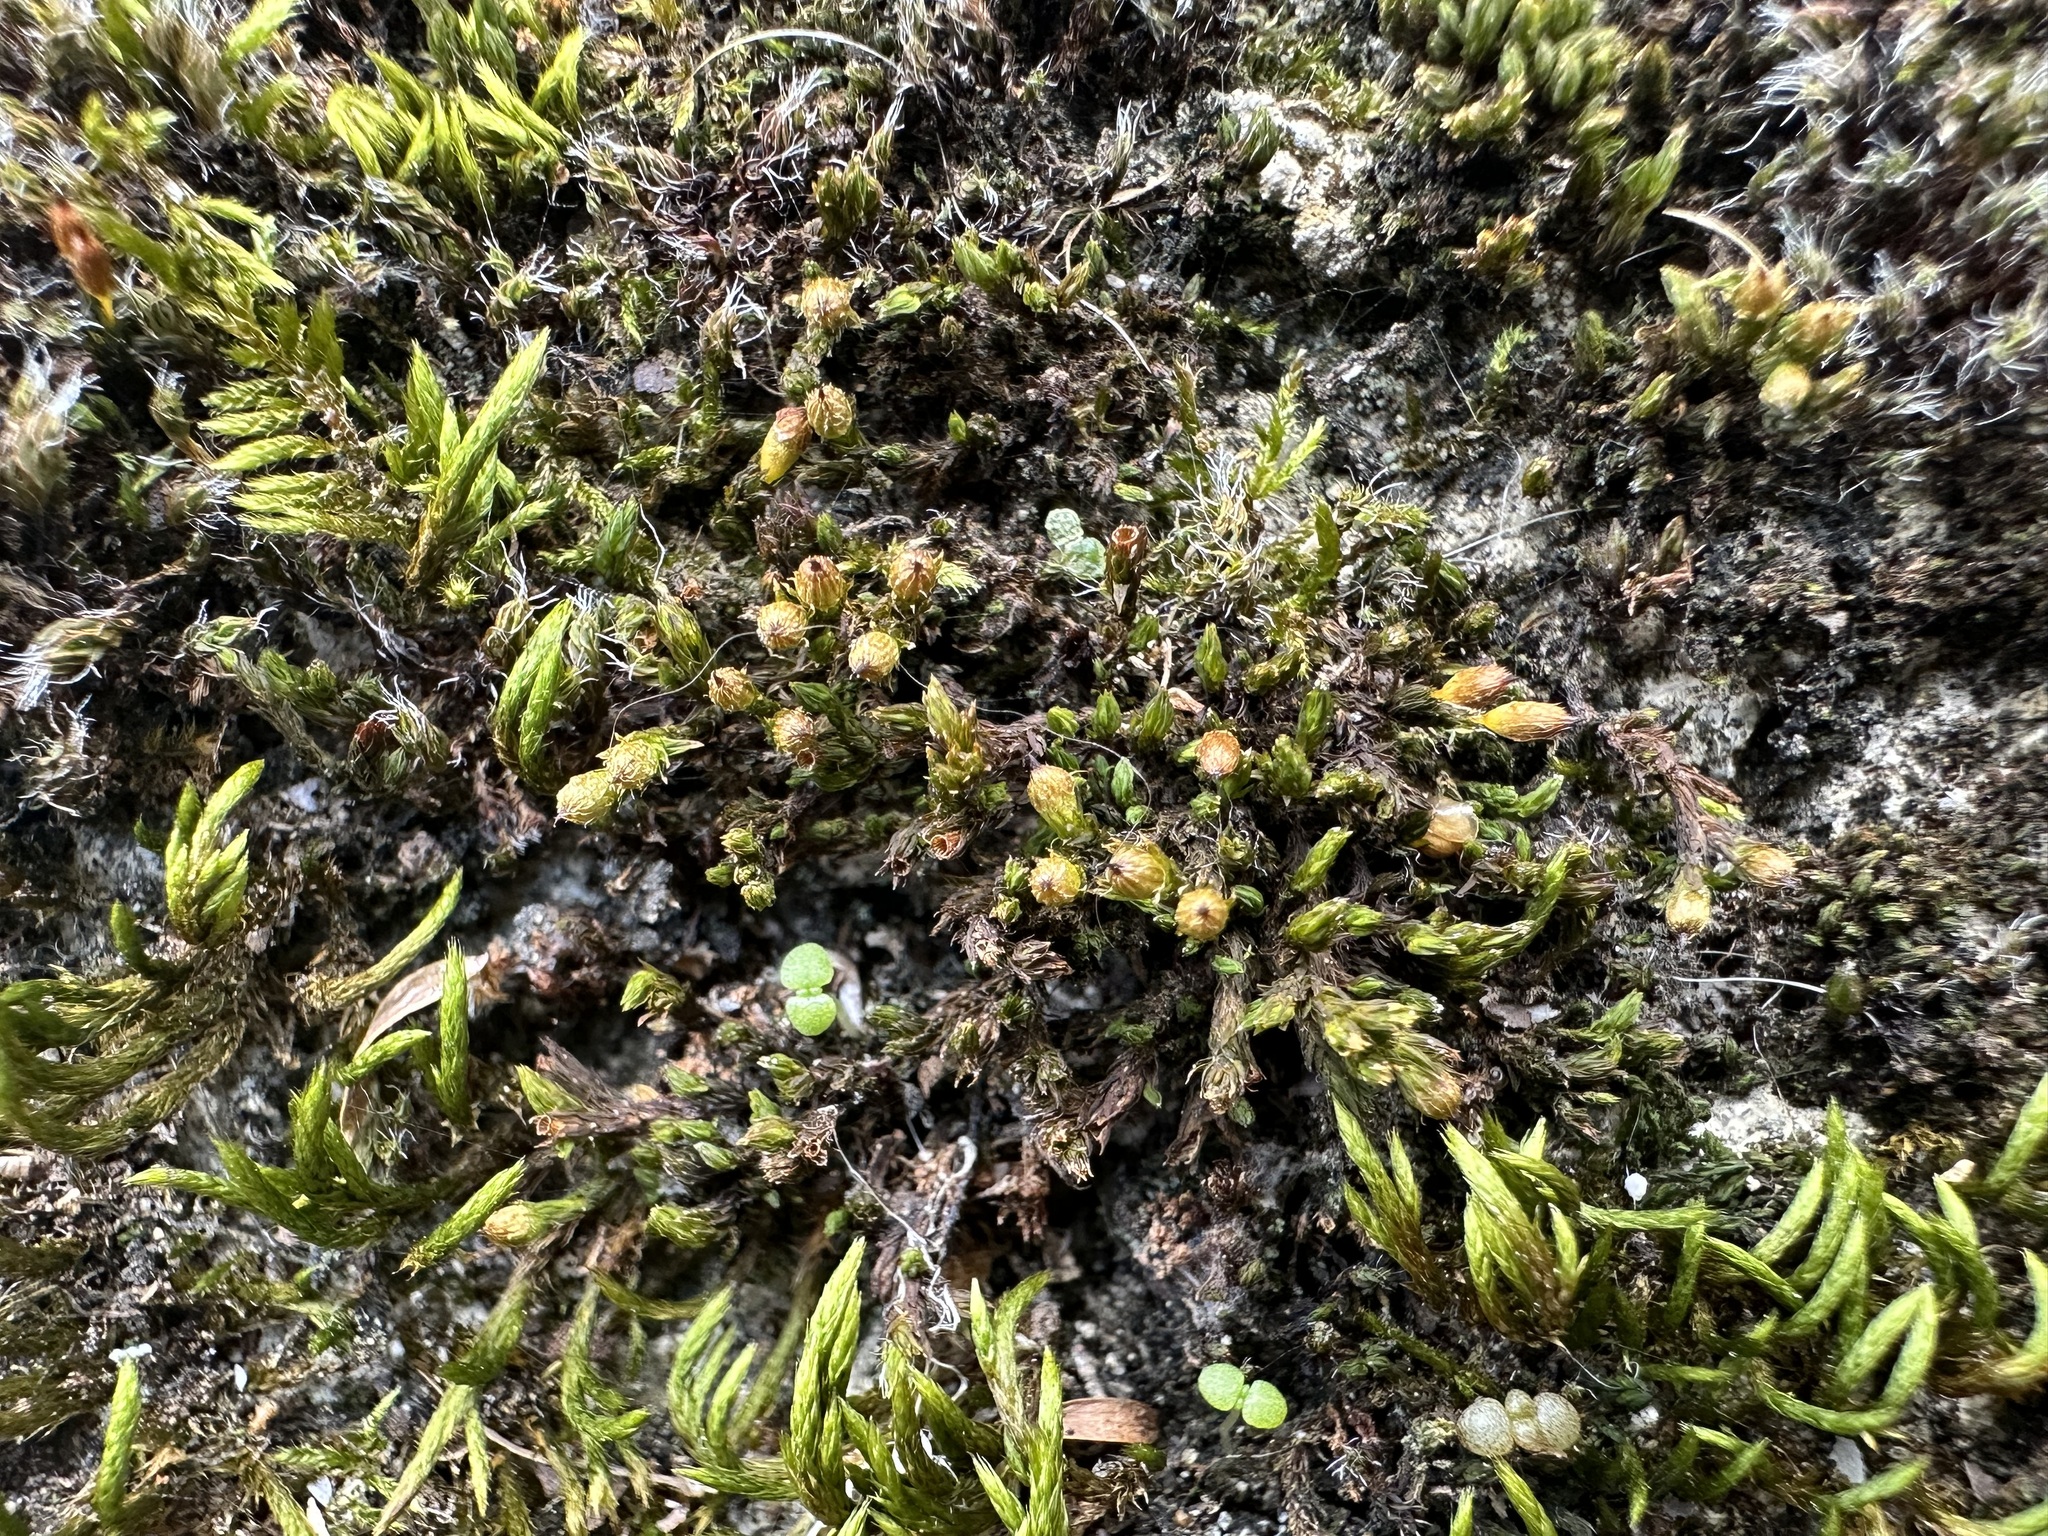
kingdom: Plantae
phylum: Bryophyta
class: Bryopsida
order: Orthotrichales
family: Orthotrichaceae
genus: Orthotrichum
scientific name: Orthotrichum anomalum
